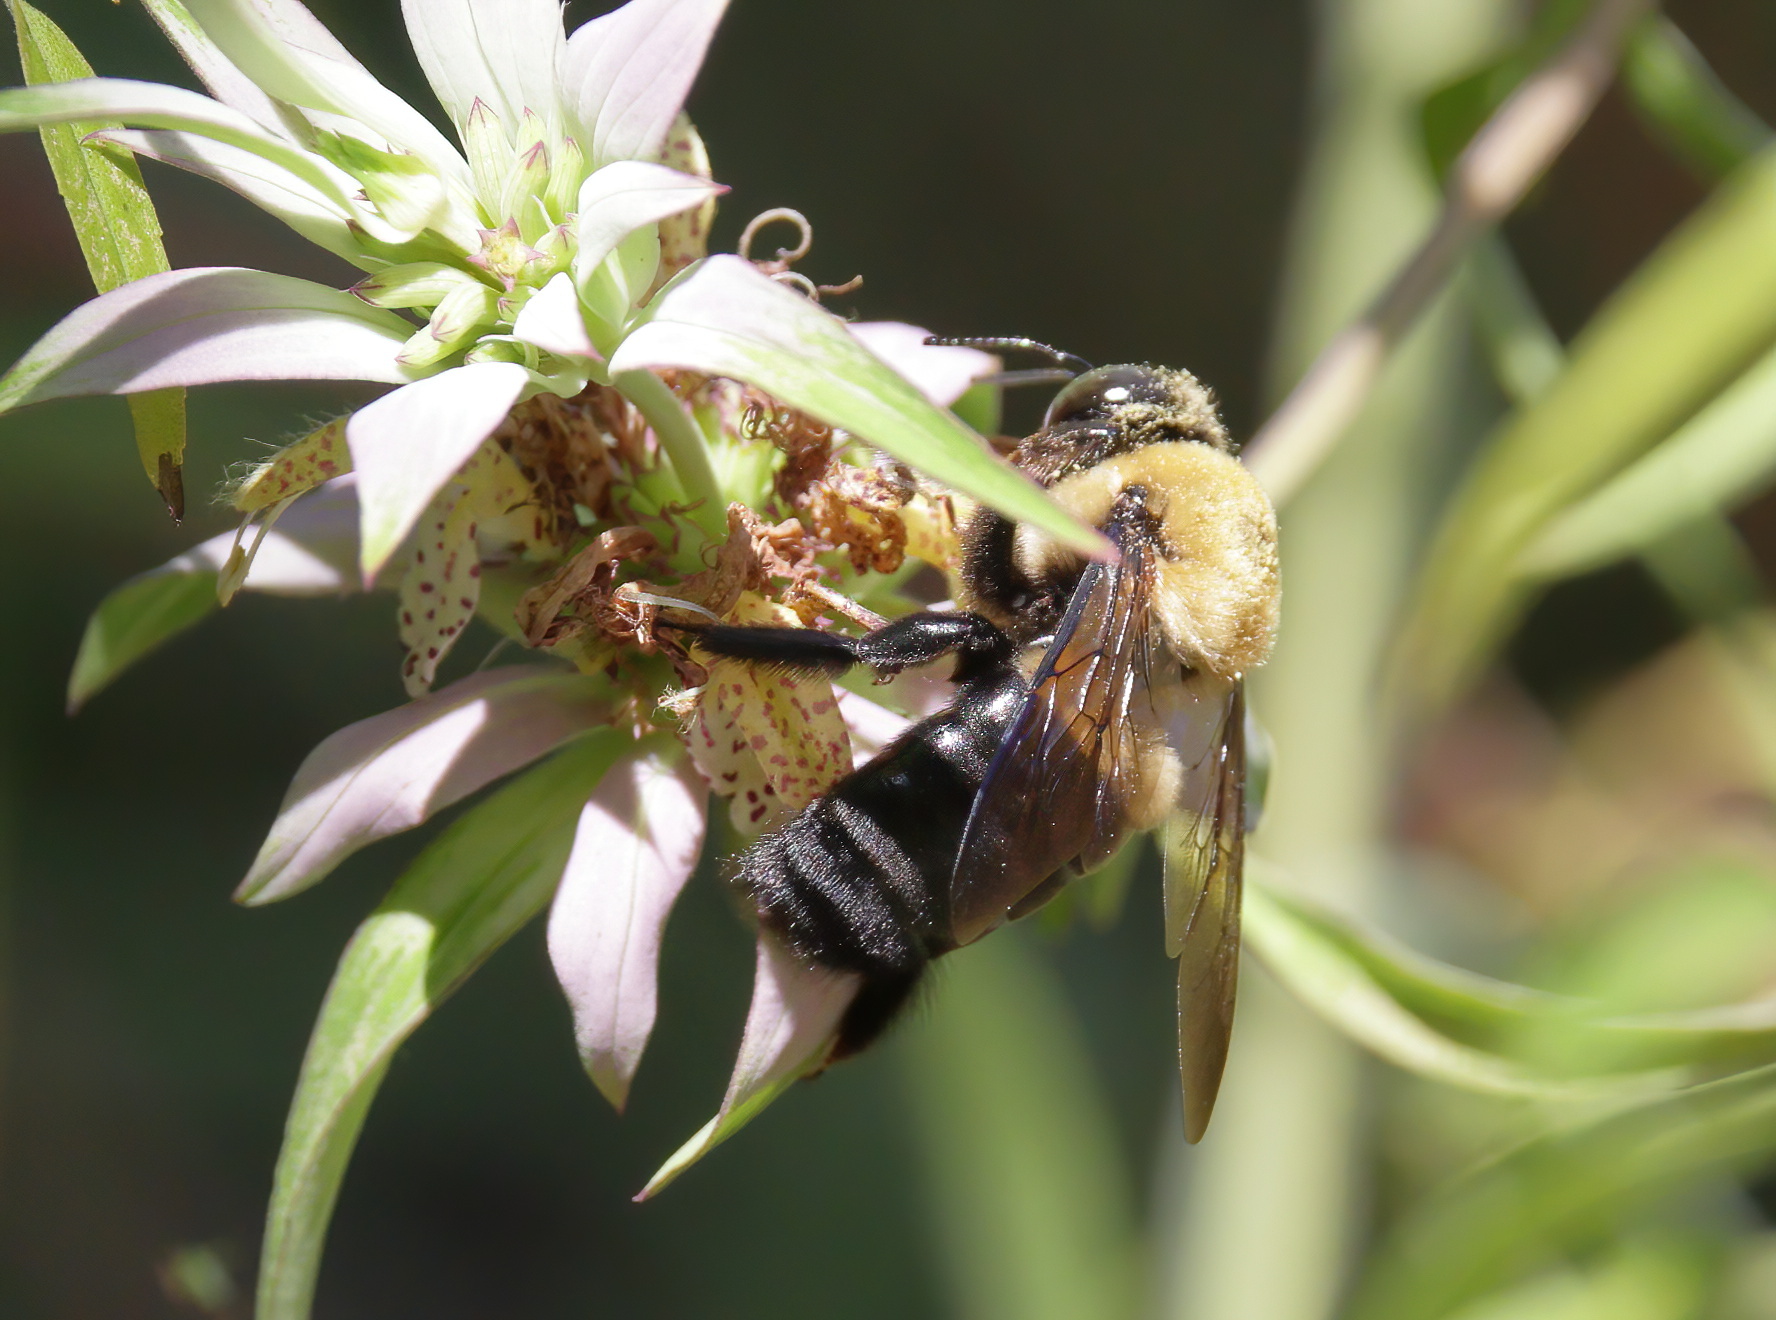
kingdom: Animalia
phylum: Arthropoda
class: Insecta
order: Hymenoptera
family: Apidae
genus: Xylocopa
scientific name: Xylocopa virginica
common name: Carpenter bee
